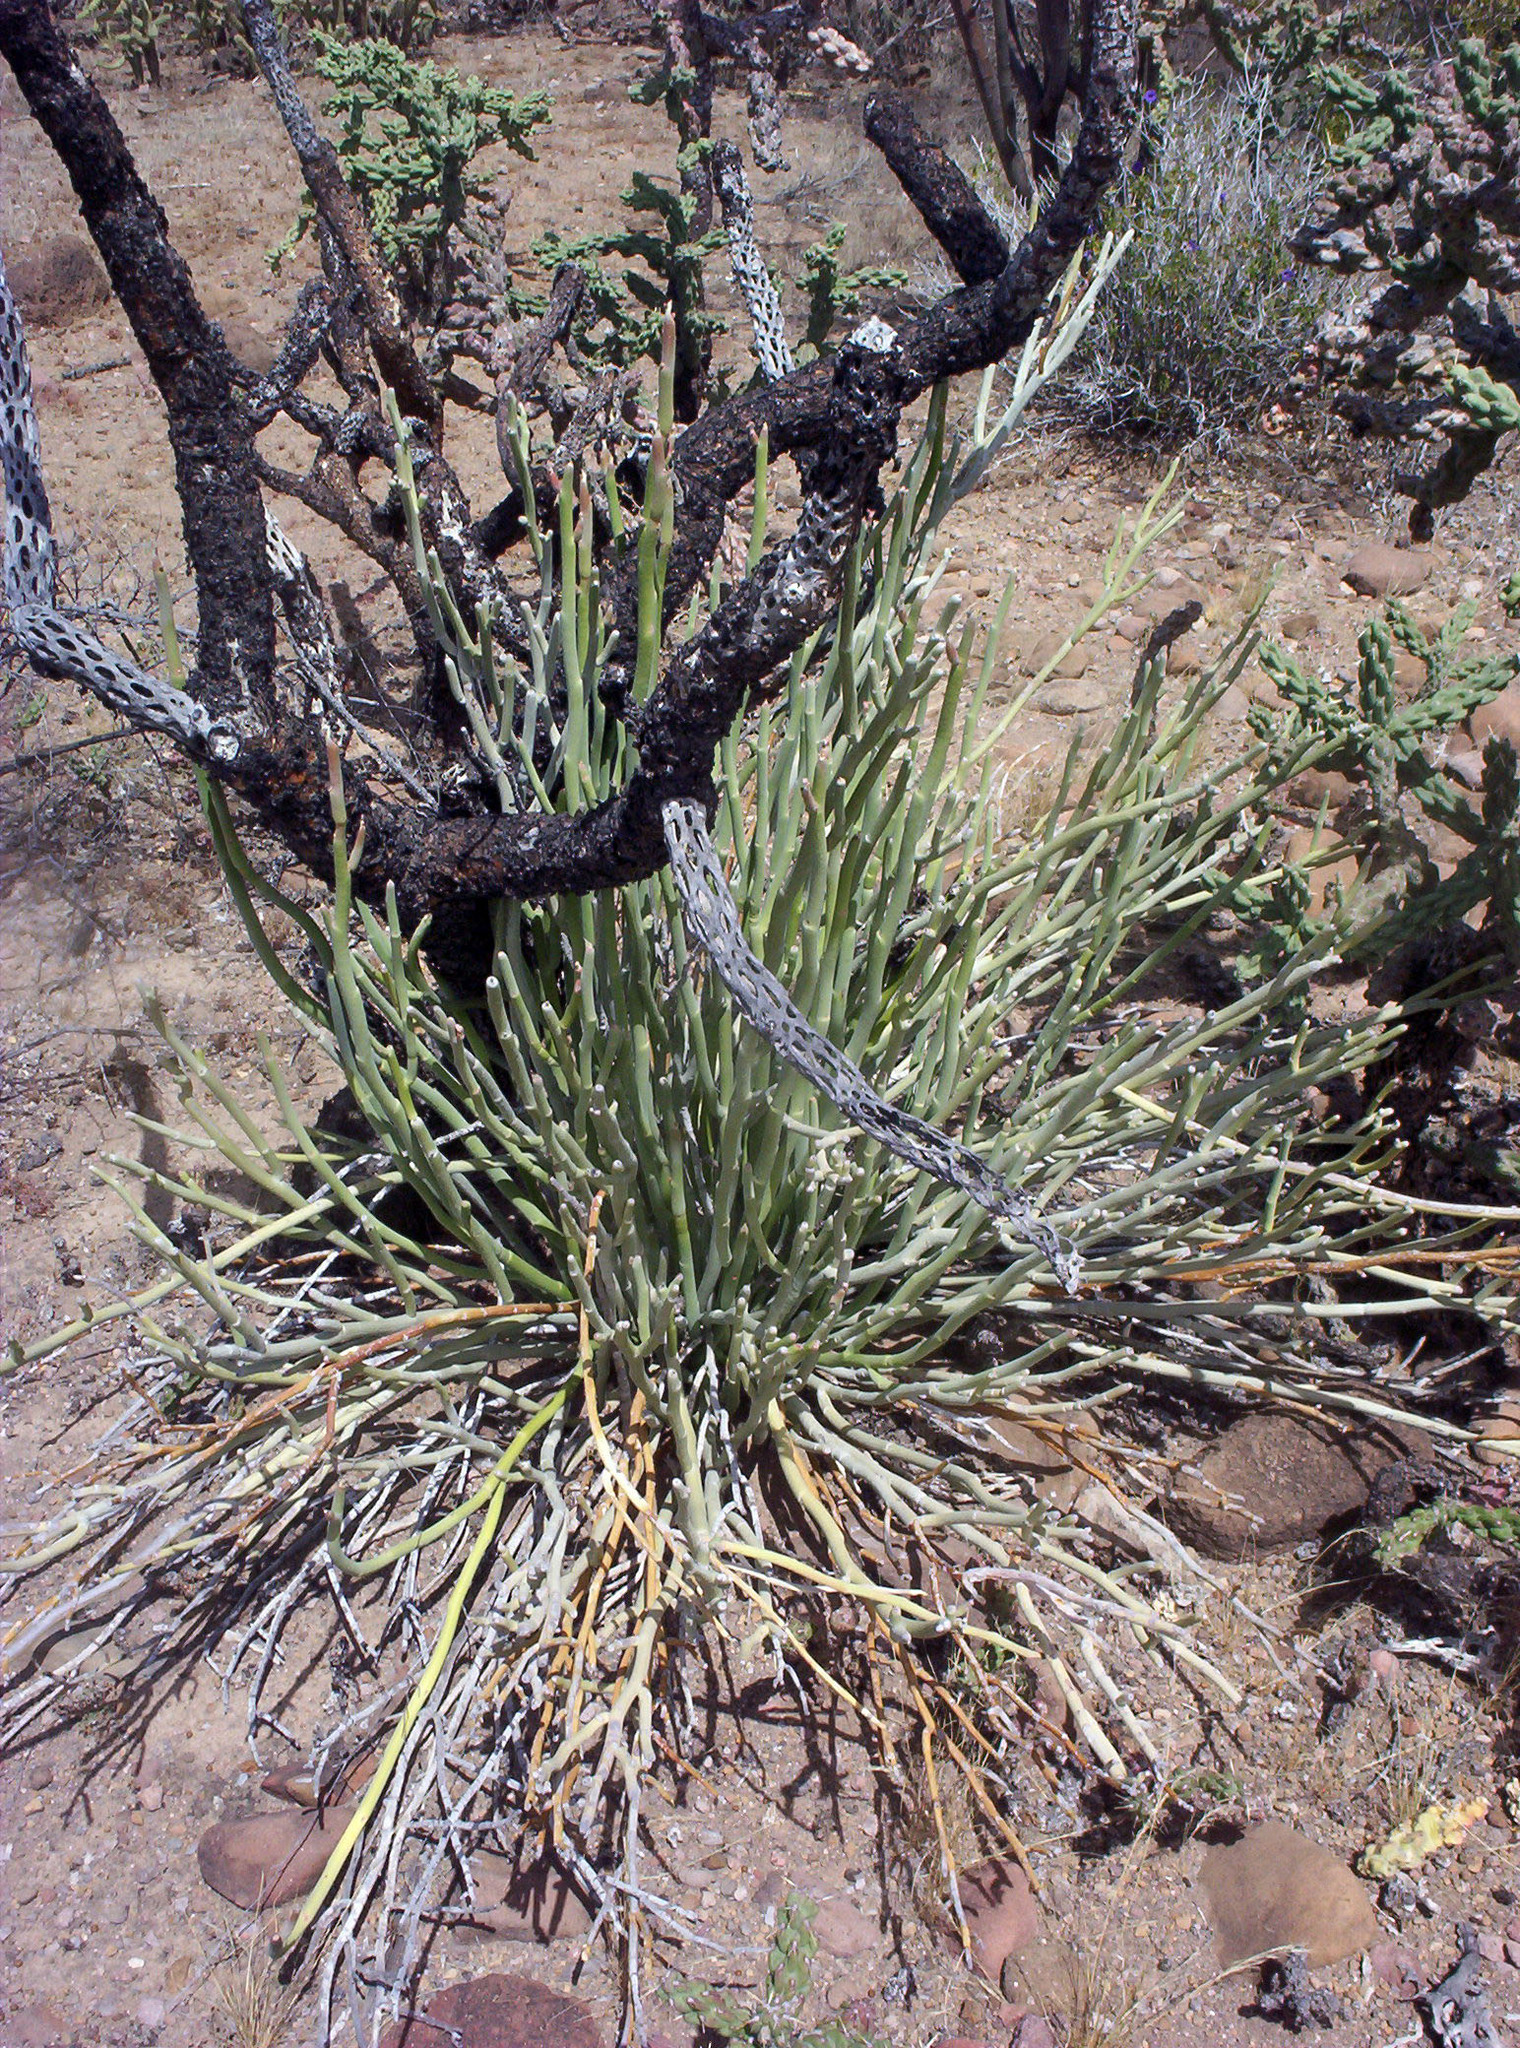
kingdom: Plantae
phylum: Tracheophyta
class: Magnoliopsida
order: Malpighiales
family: Euphorbiaceae
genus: Euphorbia
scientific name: Euphorbia lomelii
